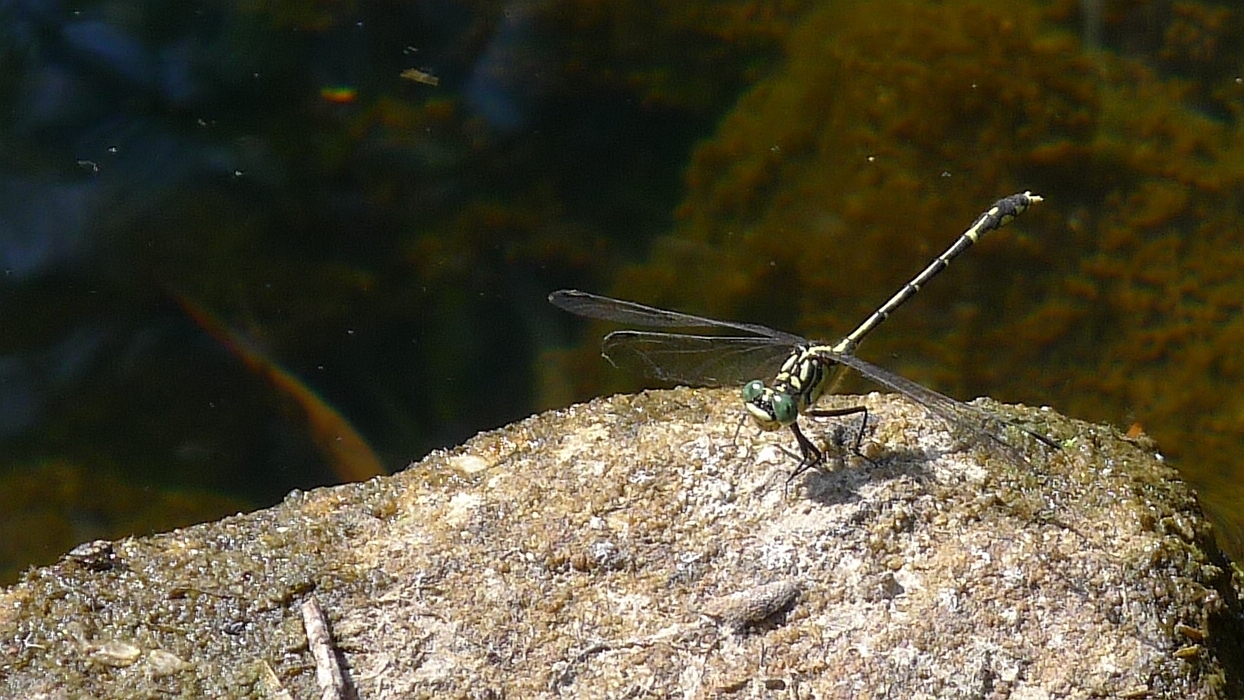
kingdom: Animalia
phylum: Arthropoda
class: Insecta
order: Odonata
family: Gomphidae
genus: Austrogomphus
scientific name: Austrogomphus ochraceus
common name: Jade hunter
